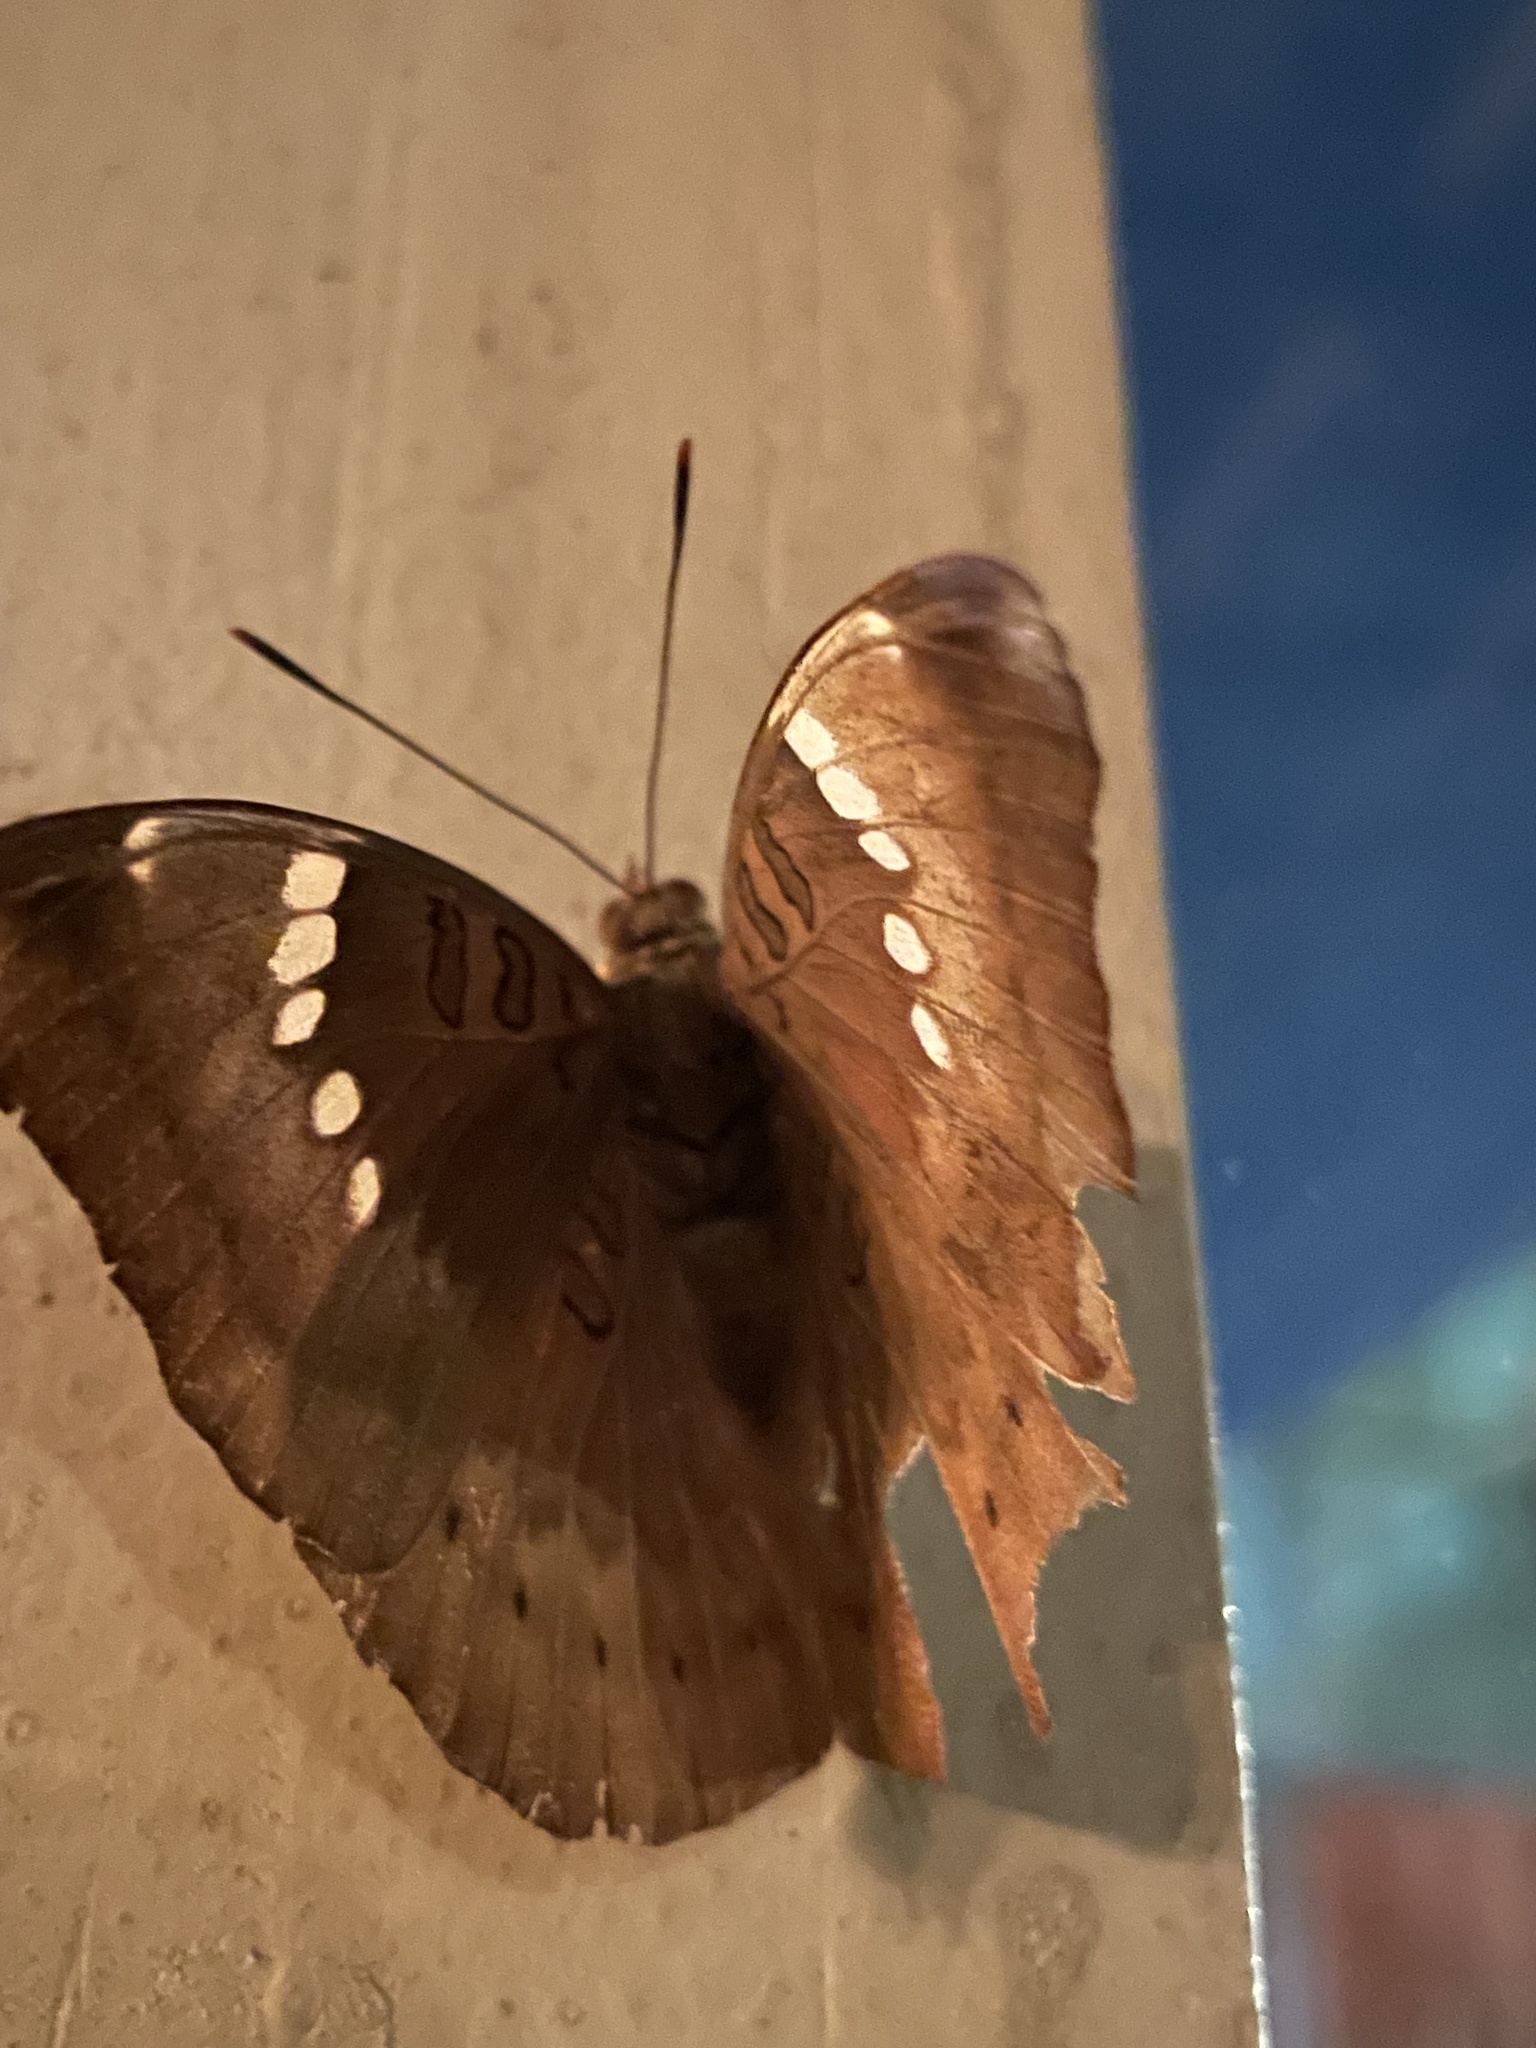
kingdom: Animalia
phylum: Arthropoda
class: Insecta
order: Lepidoptera
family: Nymphalidae
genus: Euthalia
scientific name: Euthalia aconthea
